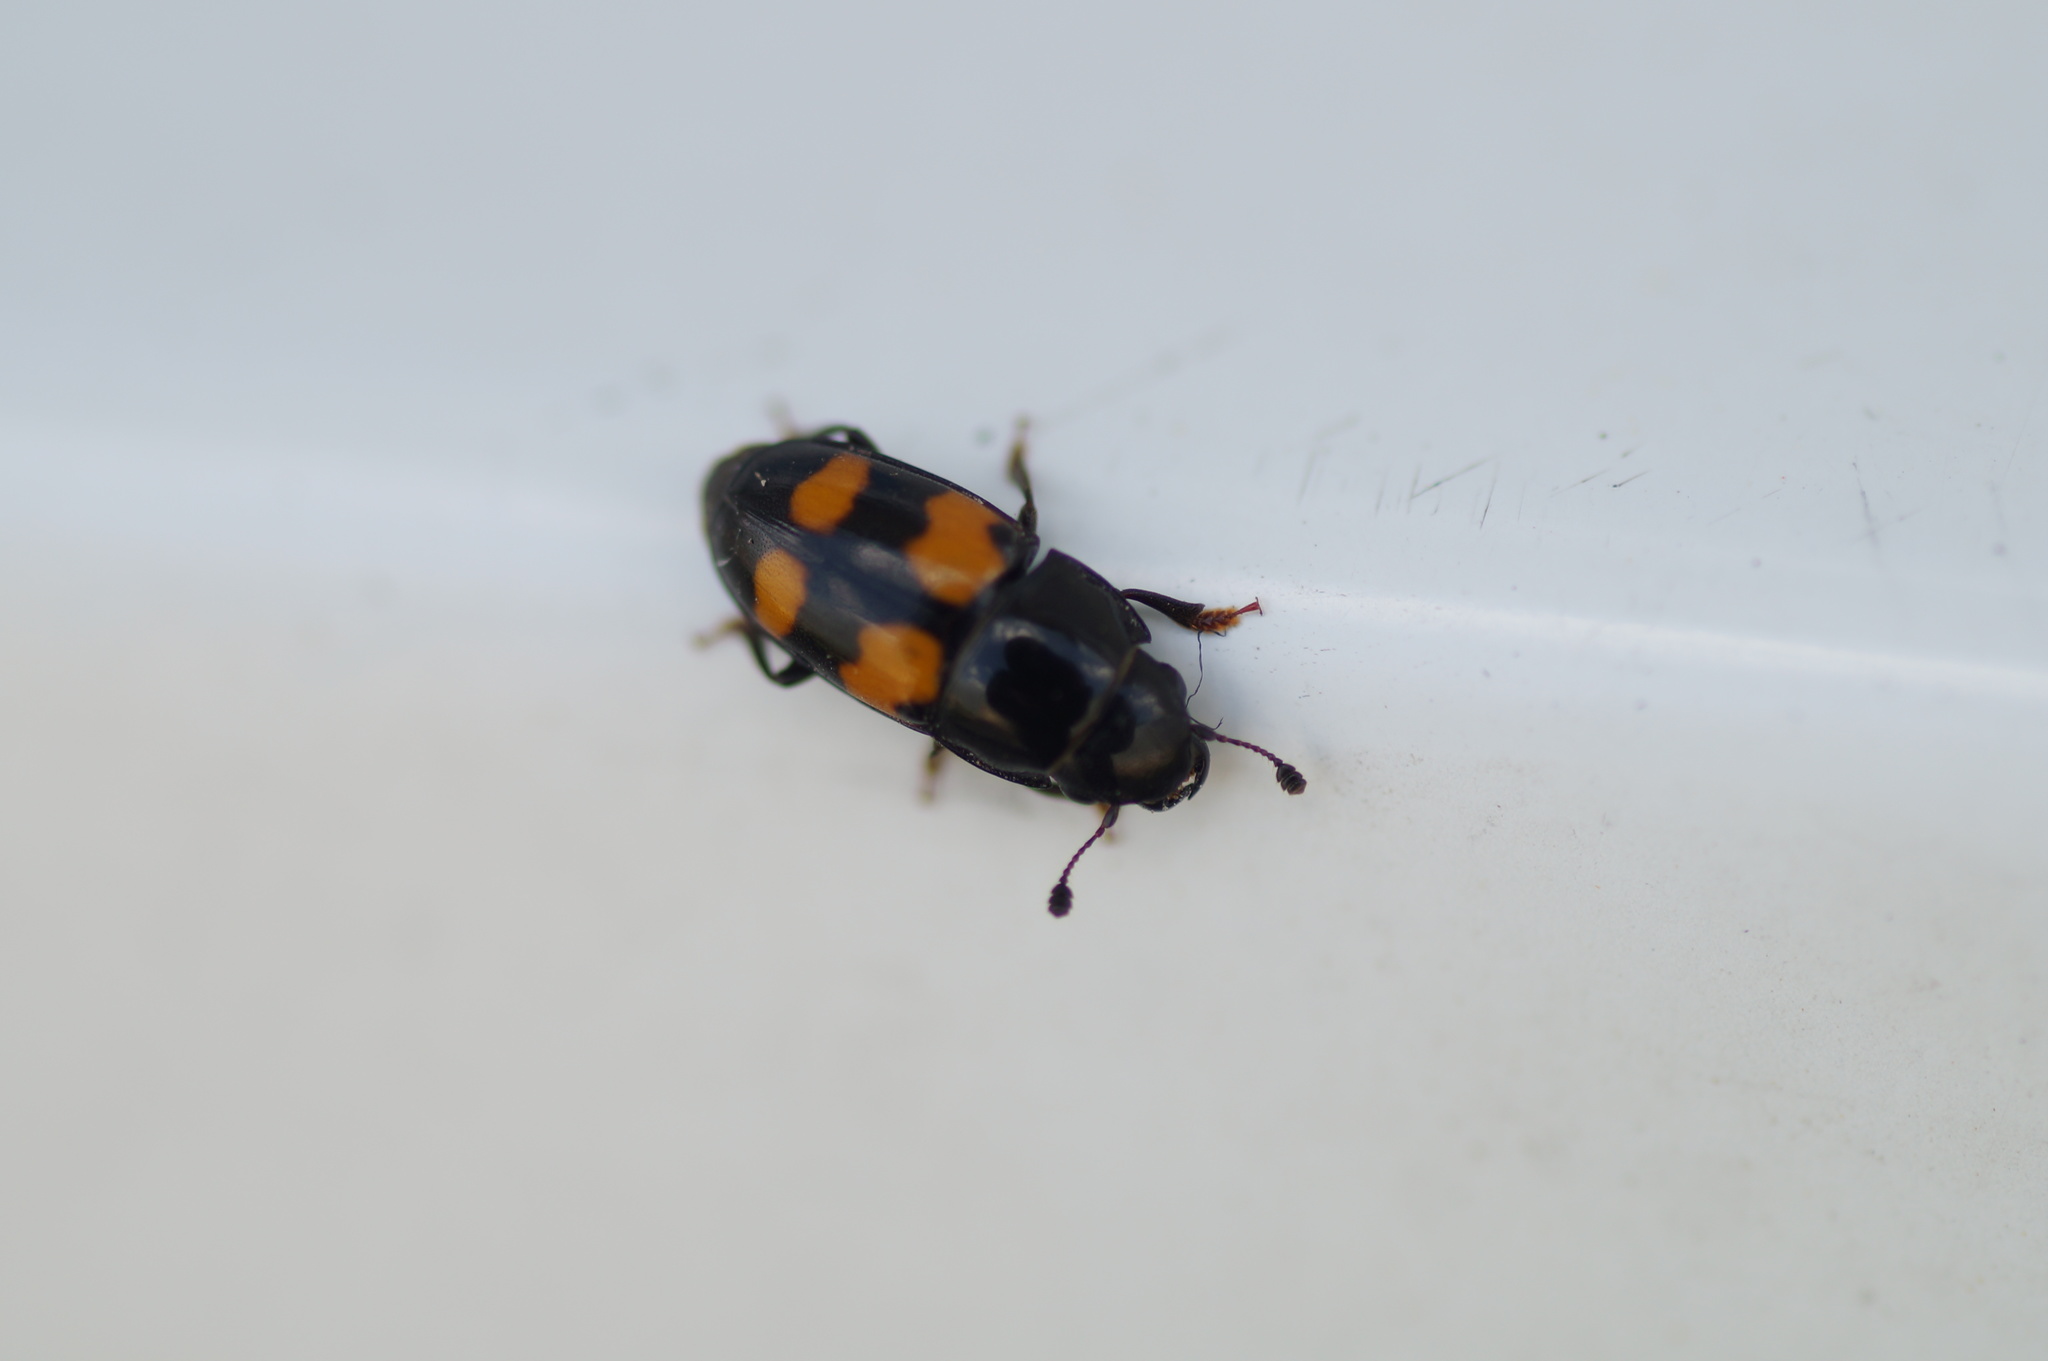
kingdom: Animalia
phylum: Arthropoda
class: Insecta
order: Coleoptera
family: Nitidulidae
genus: Glischrochilus
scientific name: Glischrochilus grandis
